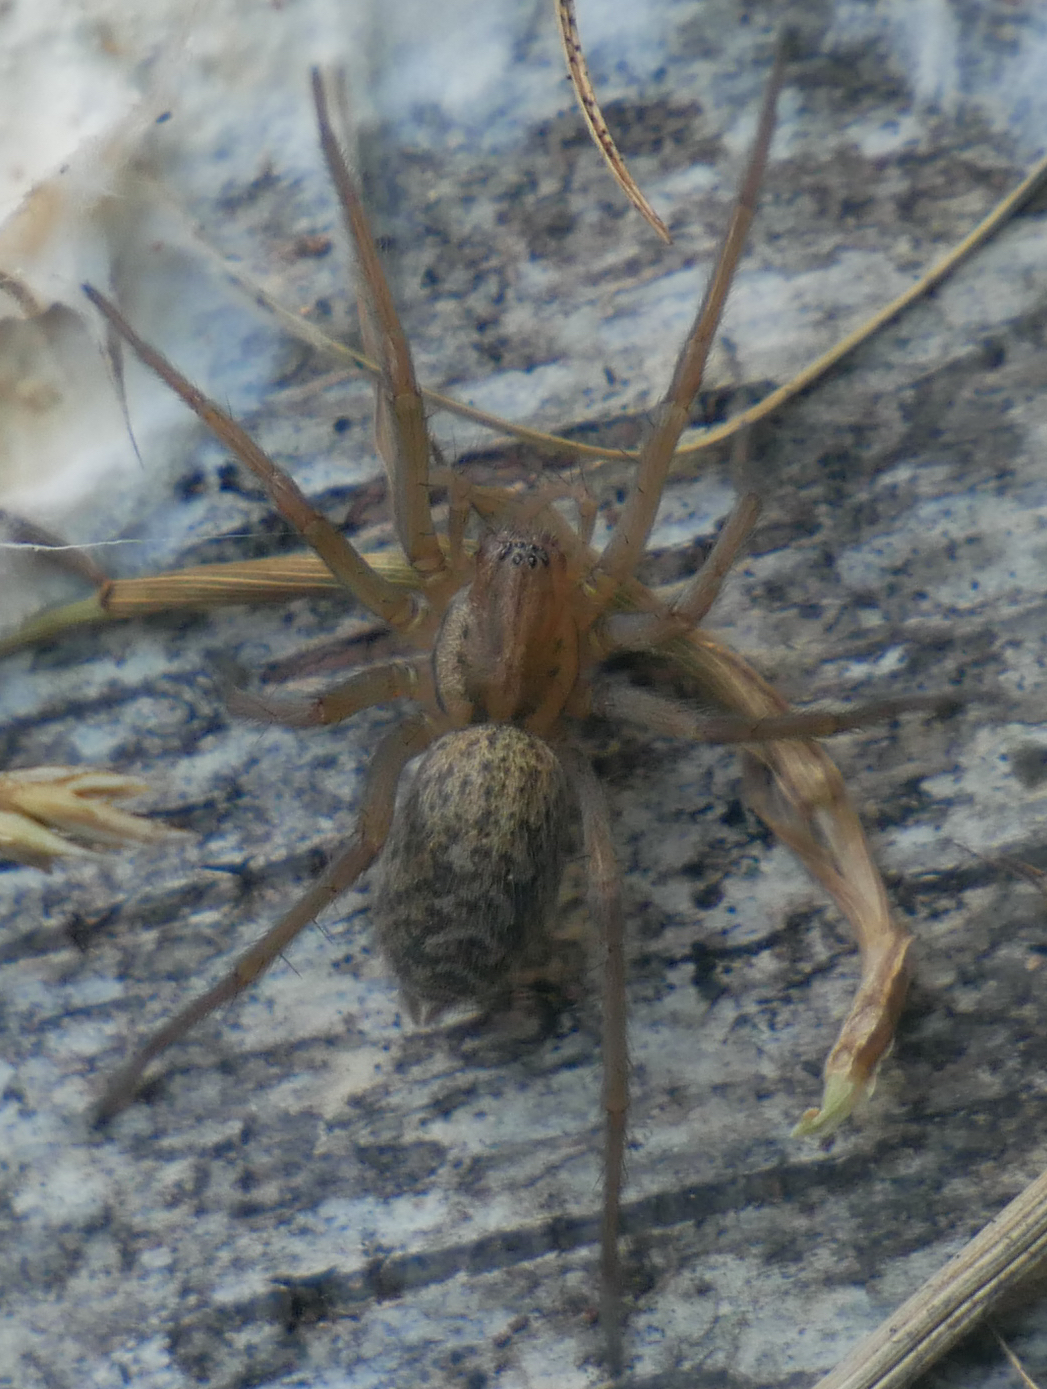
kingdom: Animalia
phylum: Arthropoda
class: Arachnida
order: Araneae
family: Agelenidae
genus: Eratigena
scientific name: Eratigena agrestis
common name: Hobo spider
